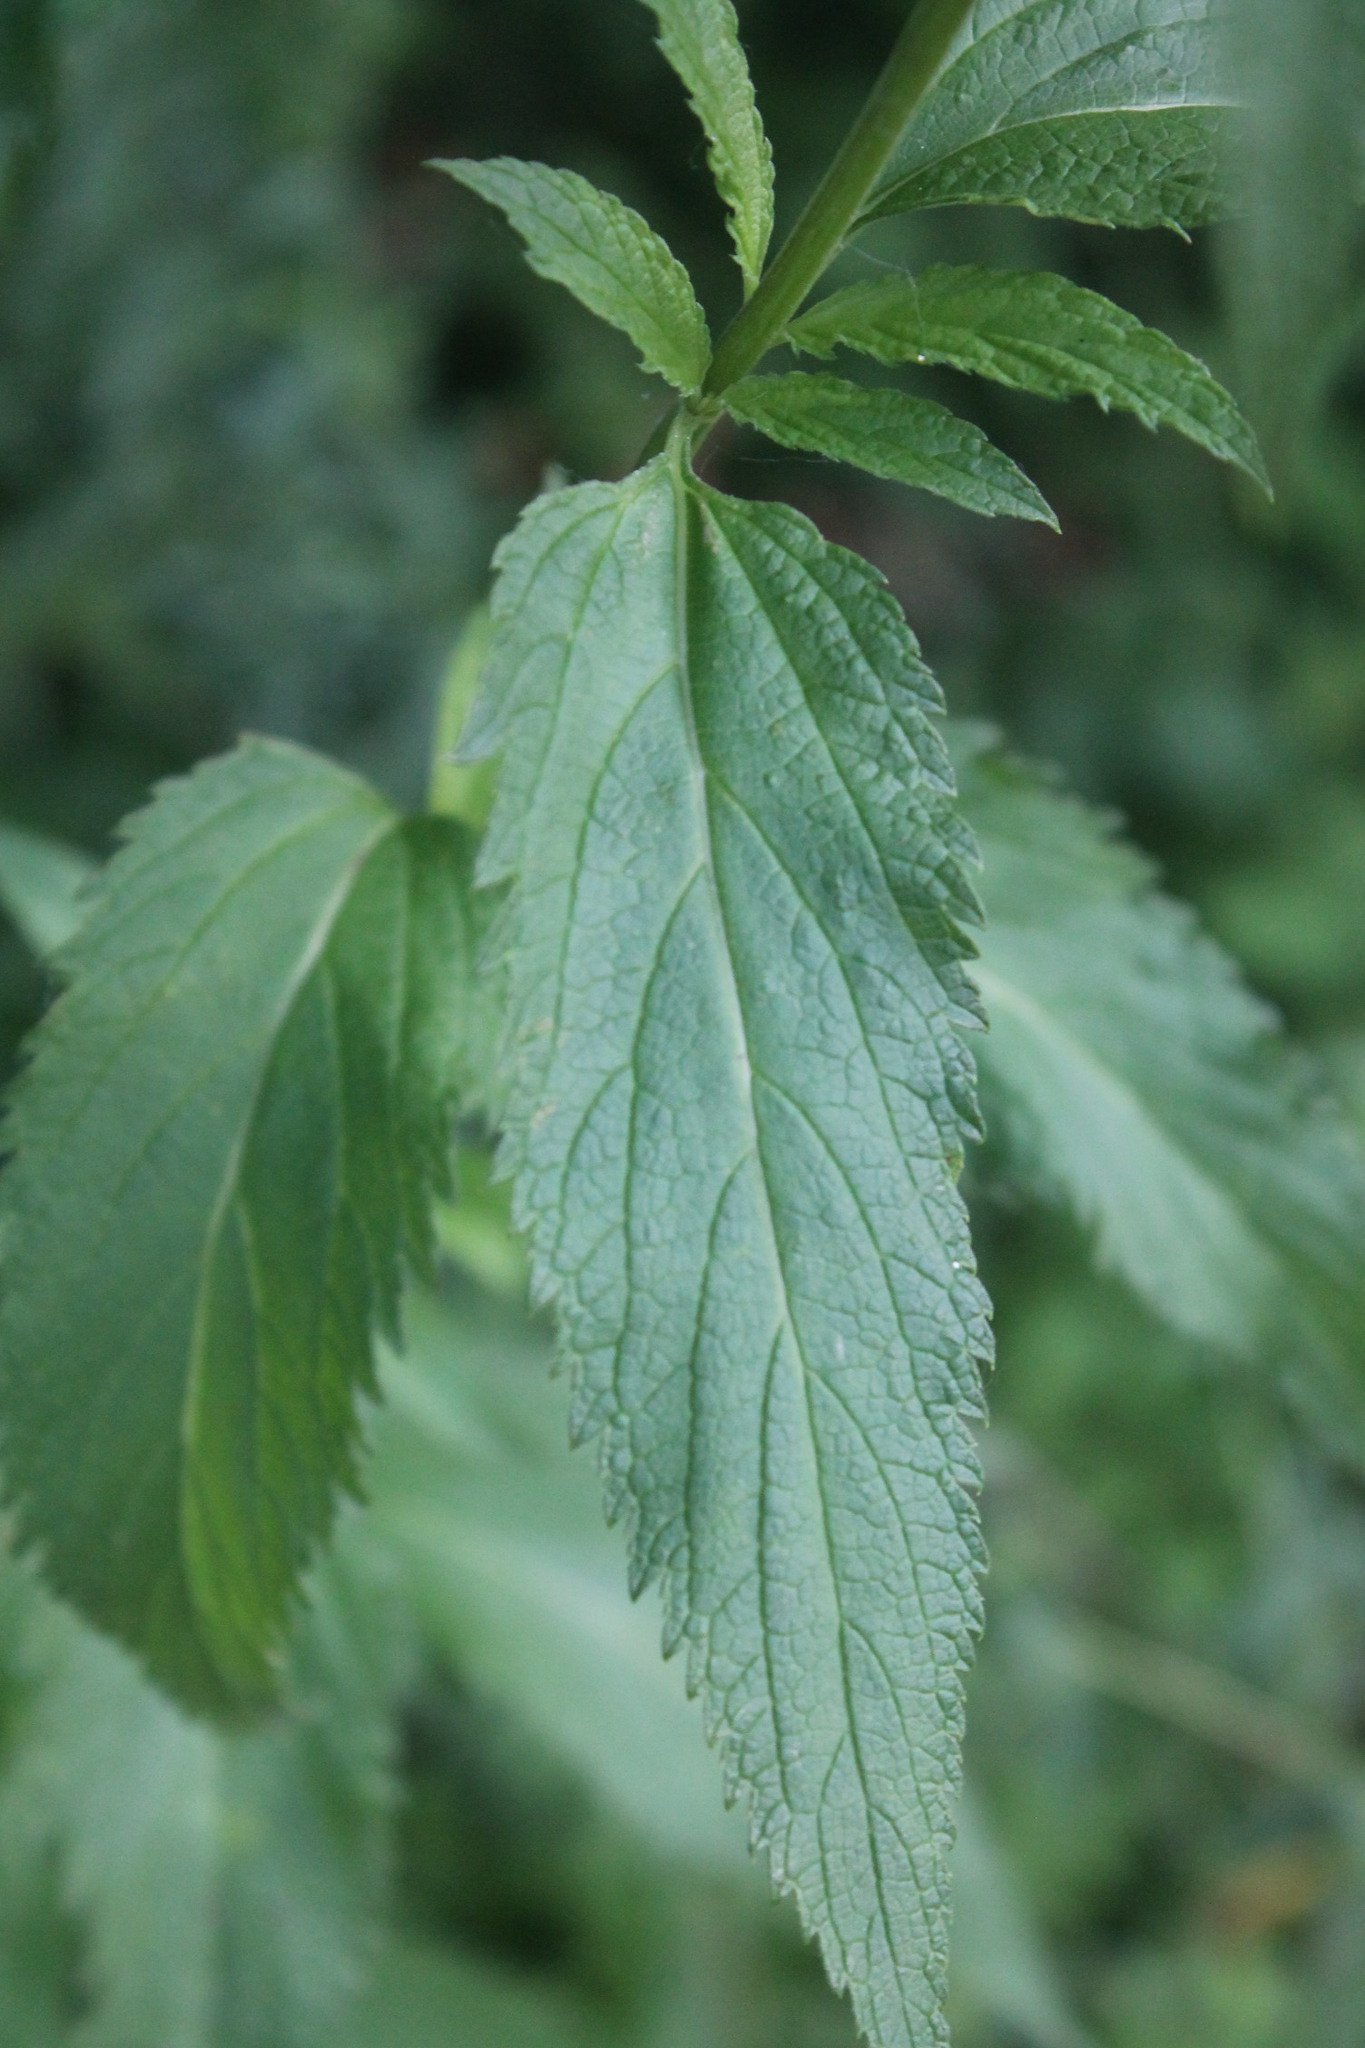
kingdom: Plantae
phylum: Tracheophyta
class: Magnoliopsida
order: Lamiales
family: Verbenaceae
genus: Verbena
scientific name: Verbena hastata
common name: American blue vervain
